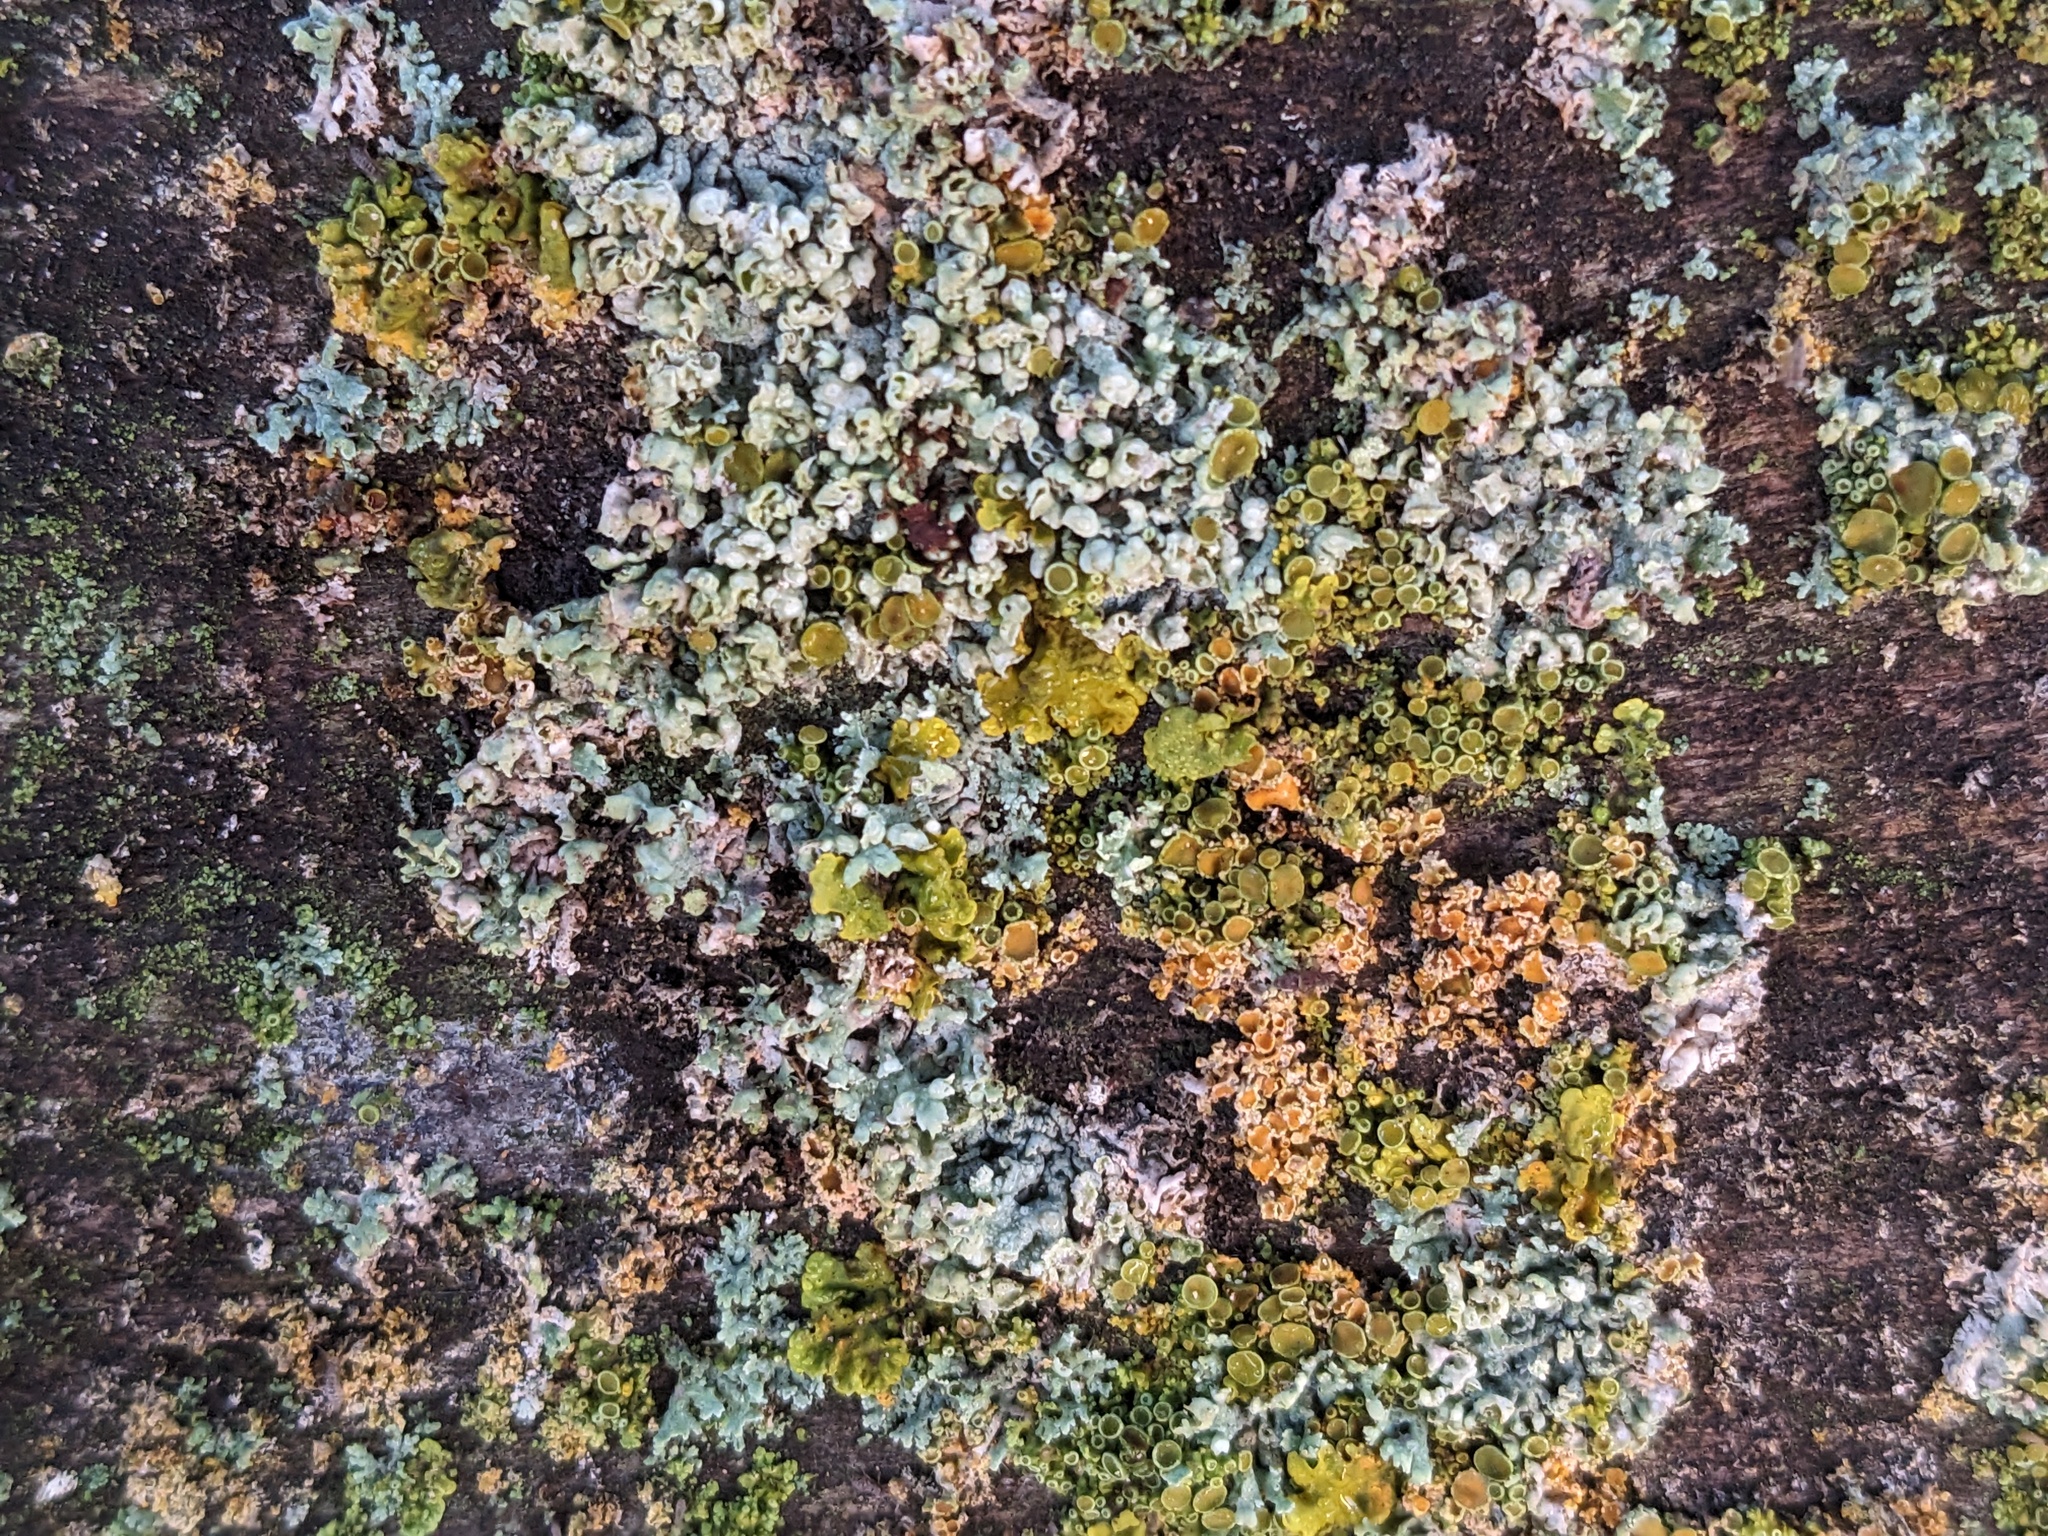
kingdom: Fungi
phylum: Ascomycota
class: Lecanoromycetes
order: Caliciales
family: Physciaceae
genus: Physcia
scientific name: Physcia adscendens
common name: Hooded rosette lichen
